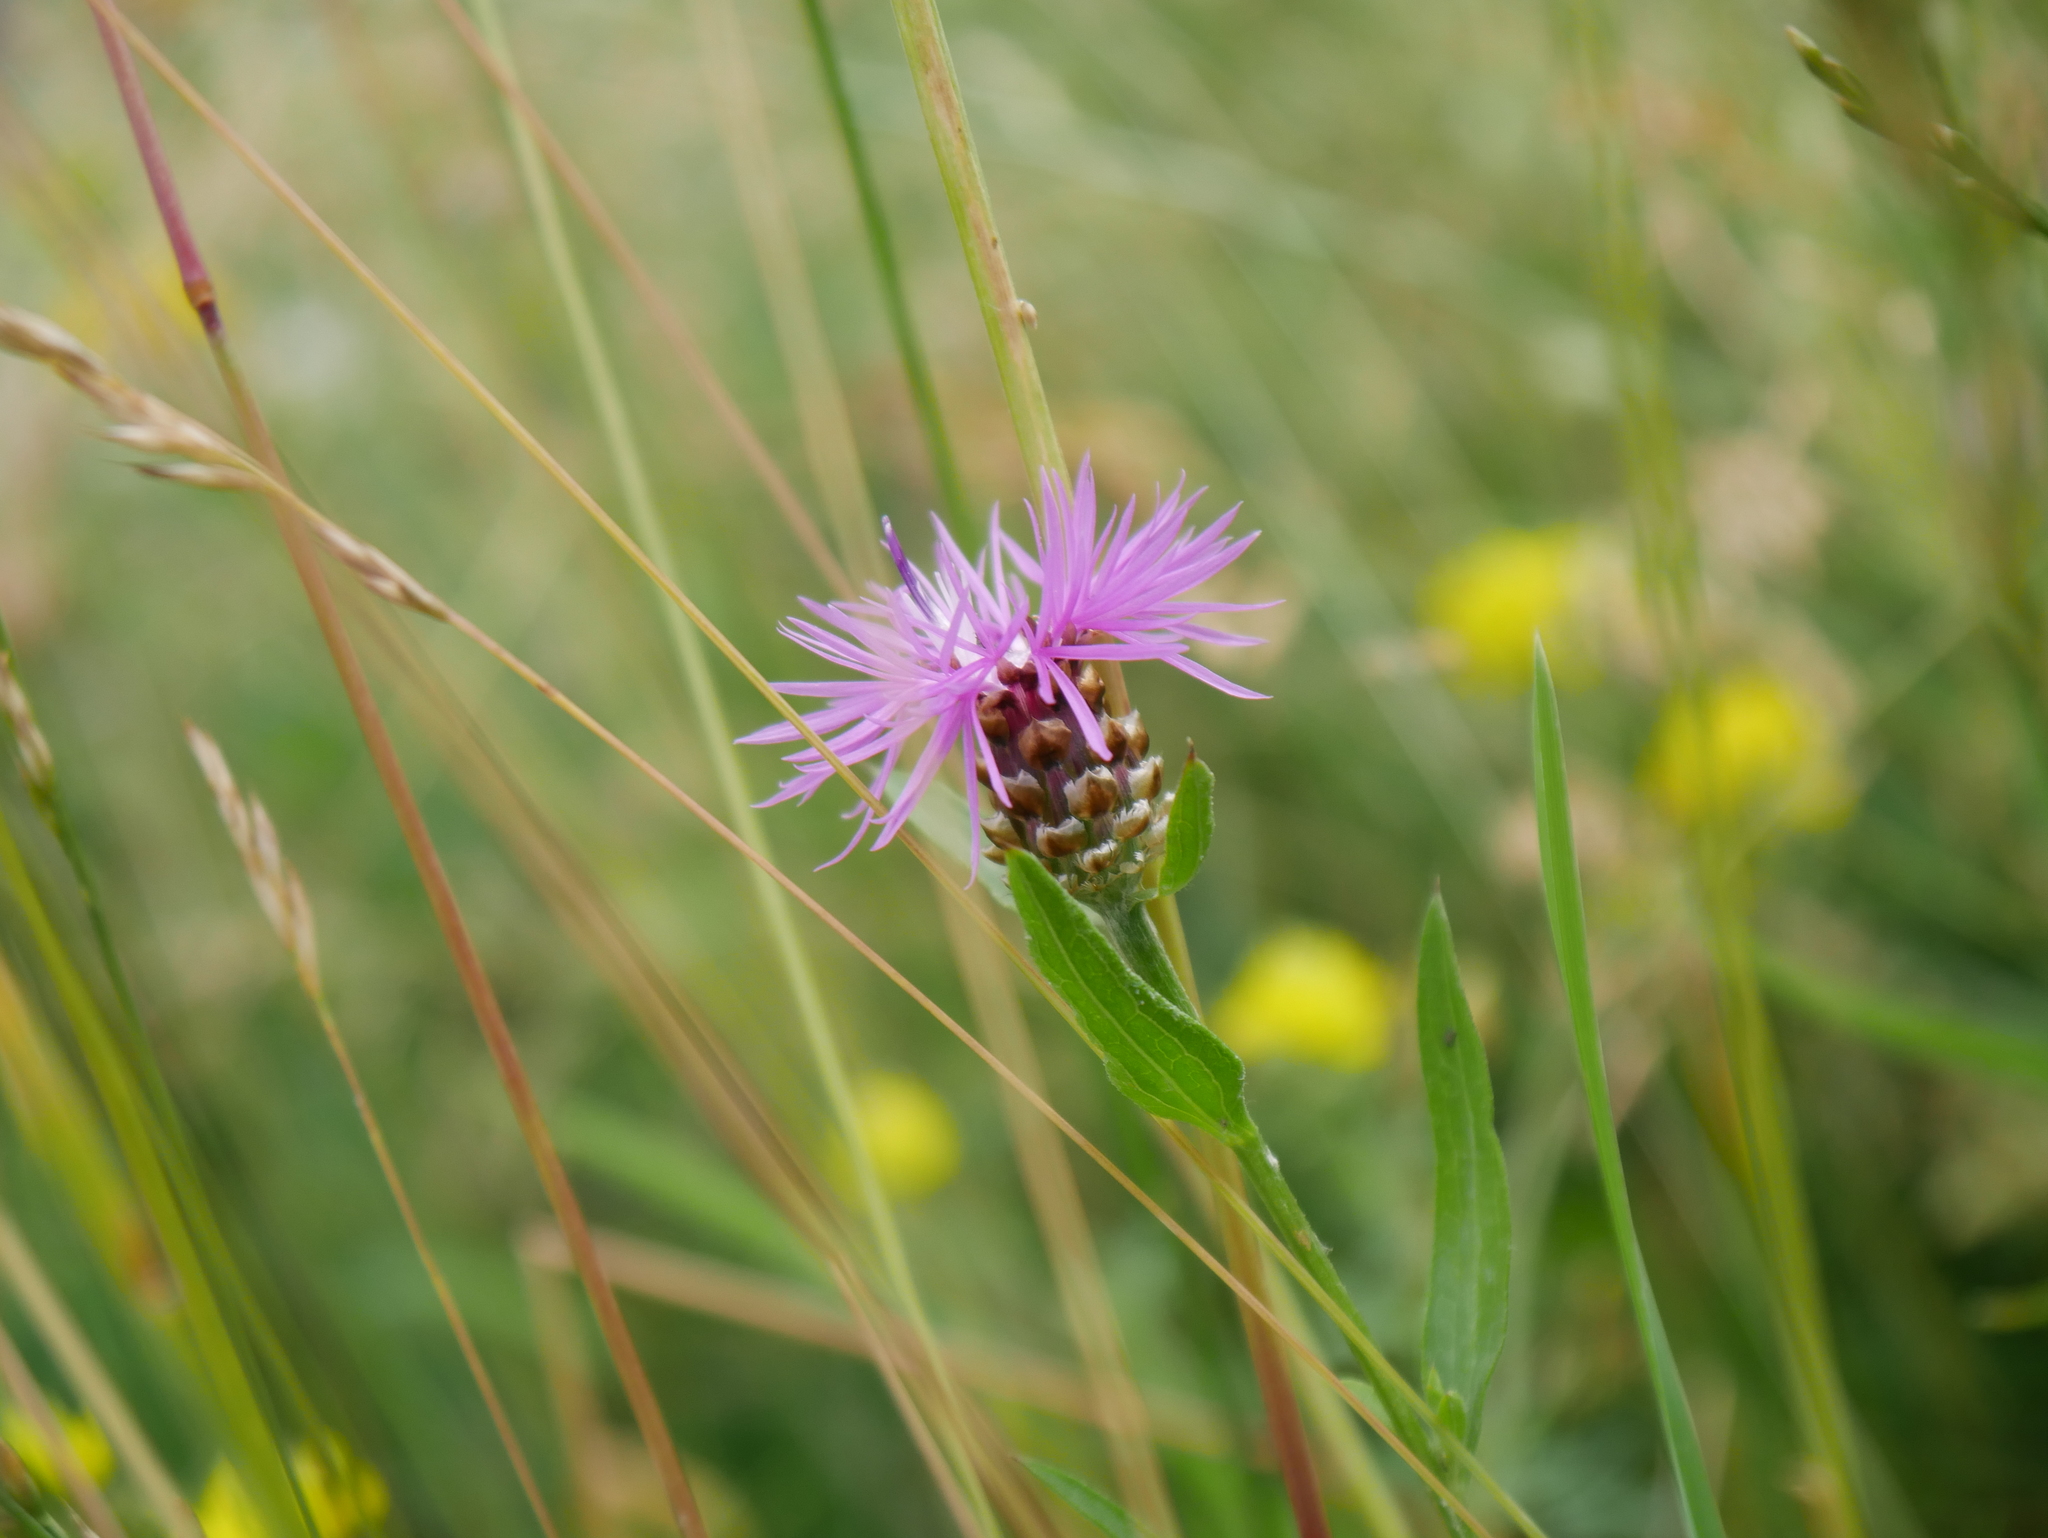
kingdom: Plantae
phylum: Tracheophyta
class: Magnoliopsida
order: Asterales
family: Asteraceae
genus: Centaurea
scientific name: Centaurea jacea
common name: Brown knapweed
